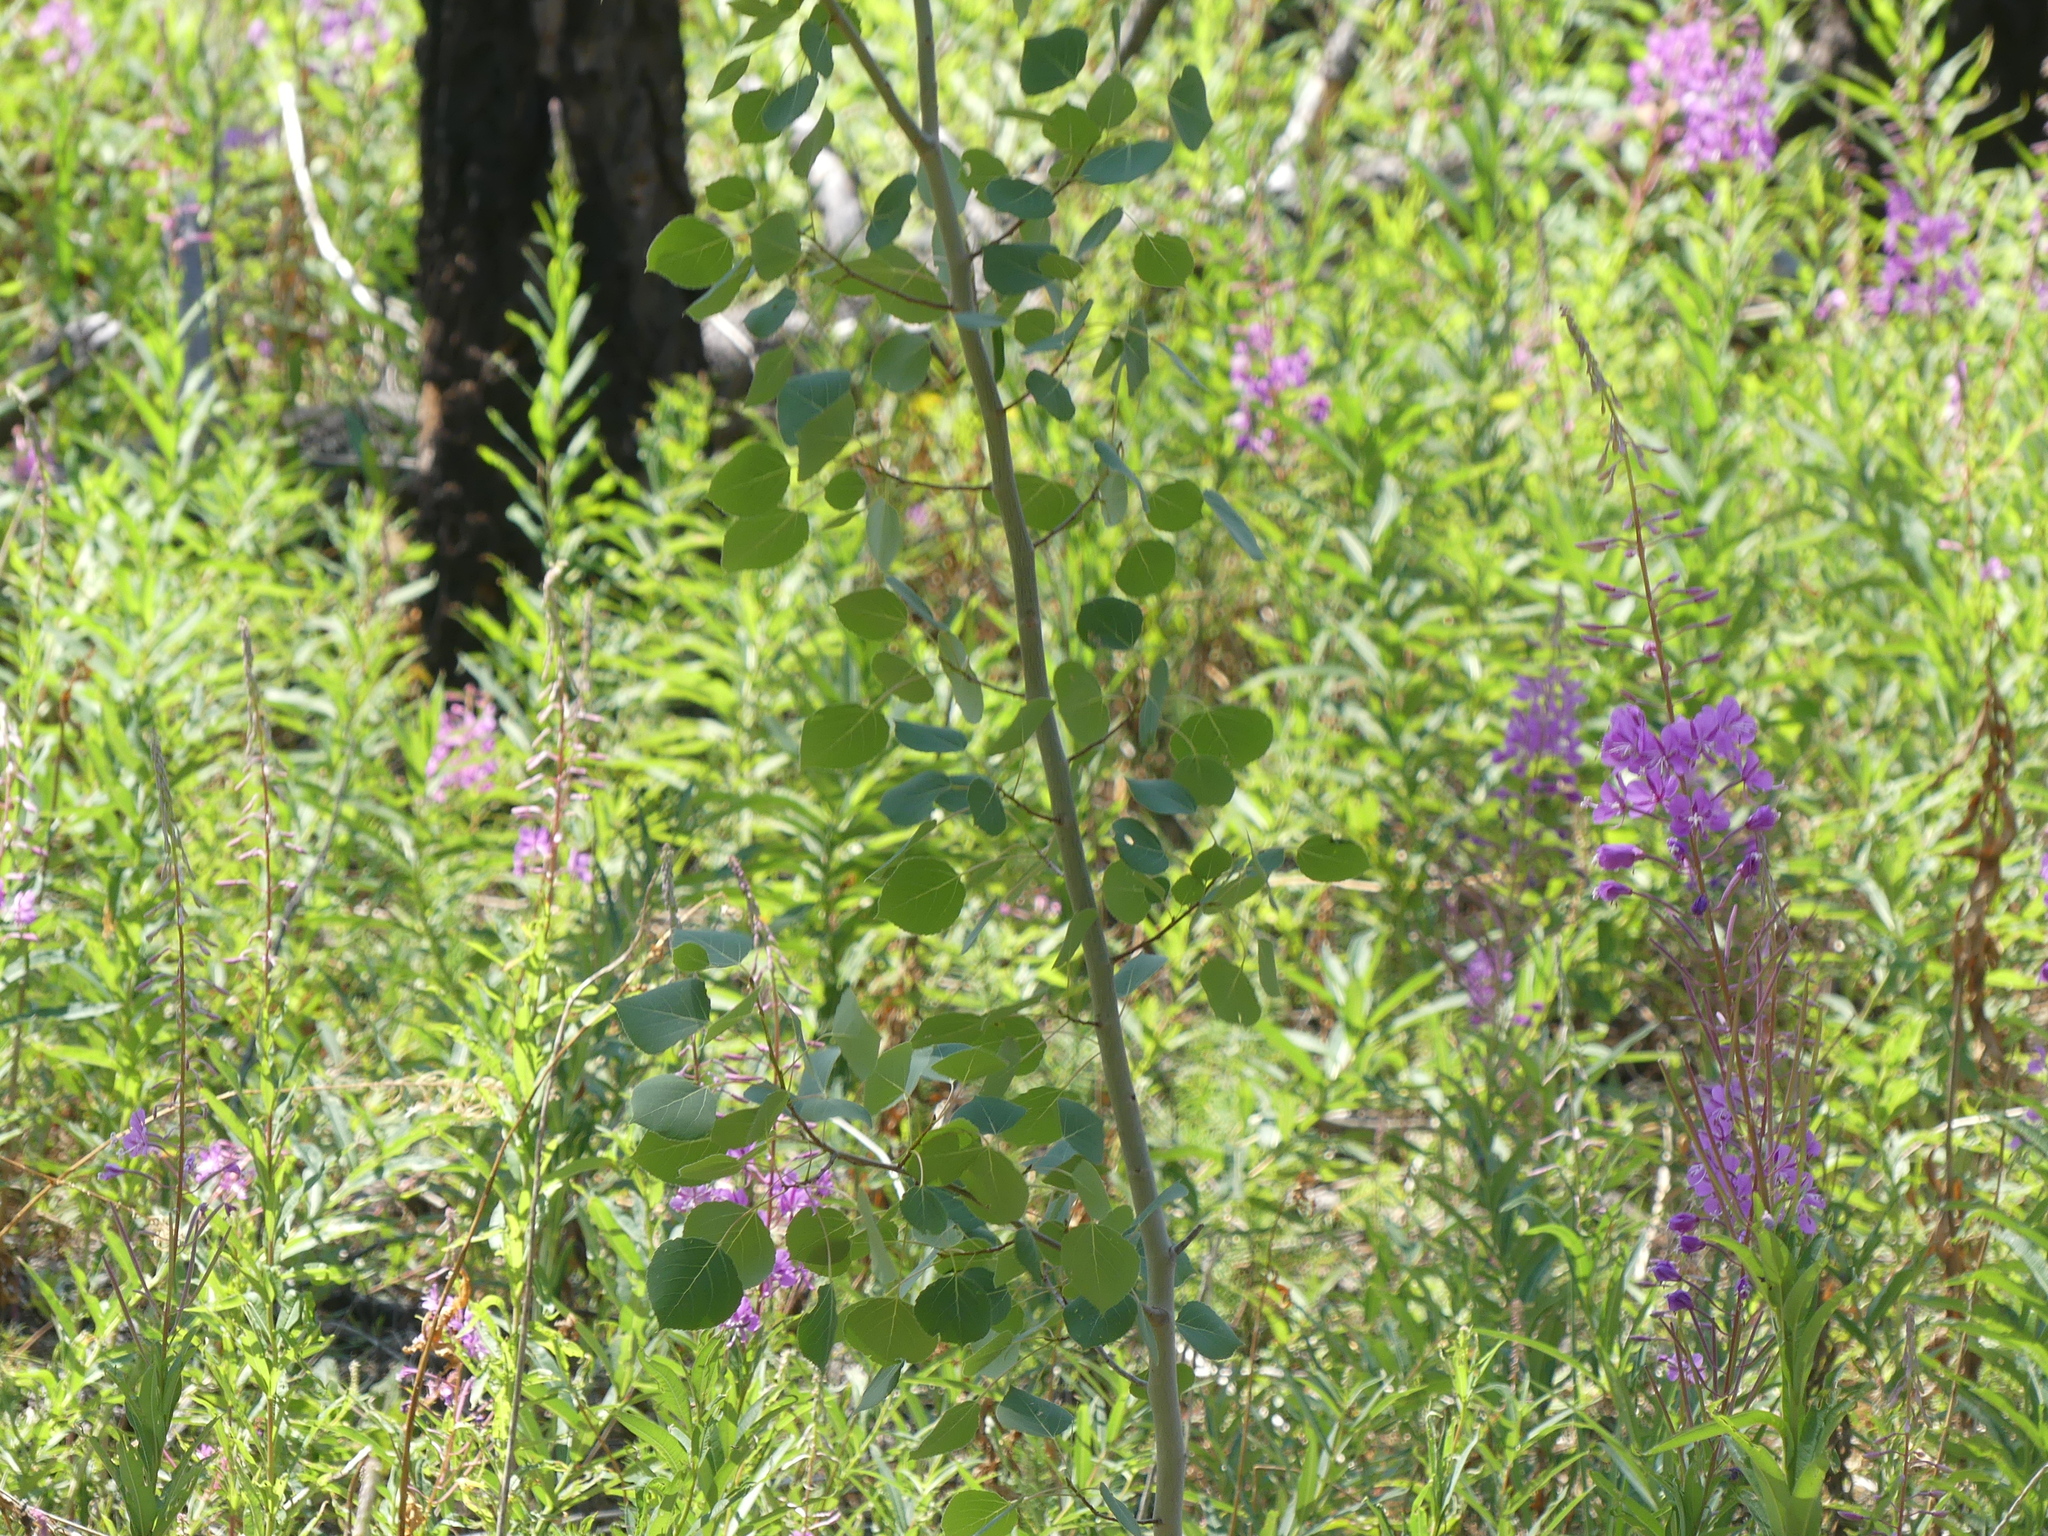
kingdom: Plantae
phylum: Tracheophyta
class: Magnoliopsida
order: Malpighiales
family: Salicaceae
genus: Populus
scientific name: Populus tremuloides
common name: Quaking aspen
